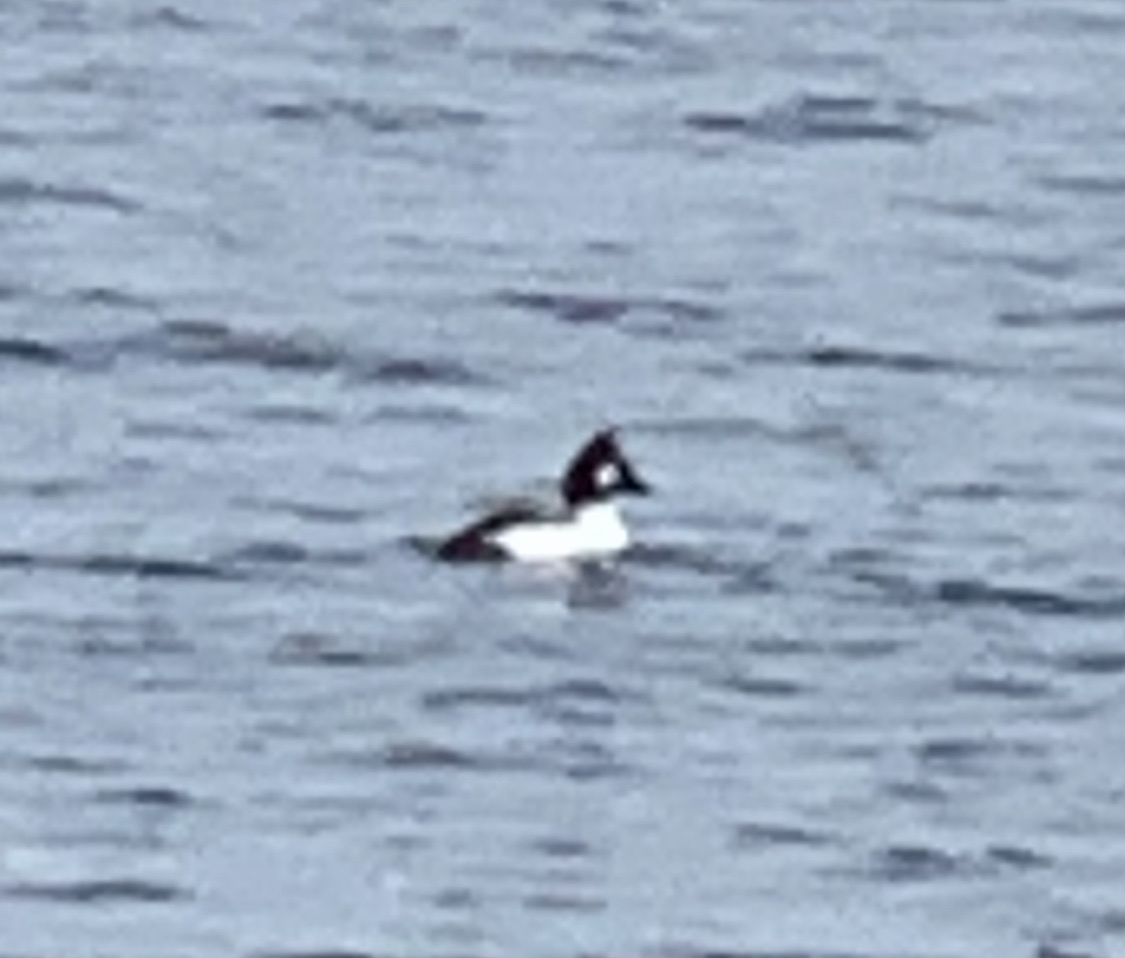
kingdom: Animalia
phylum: Chordata
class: Aves
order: Anseriformes
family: Anatidae
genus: Bucephala
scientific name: Bucephala clangula
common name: Common goldeneye
